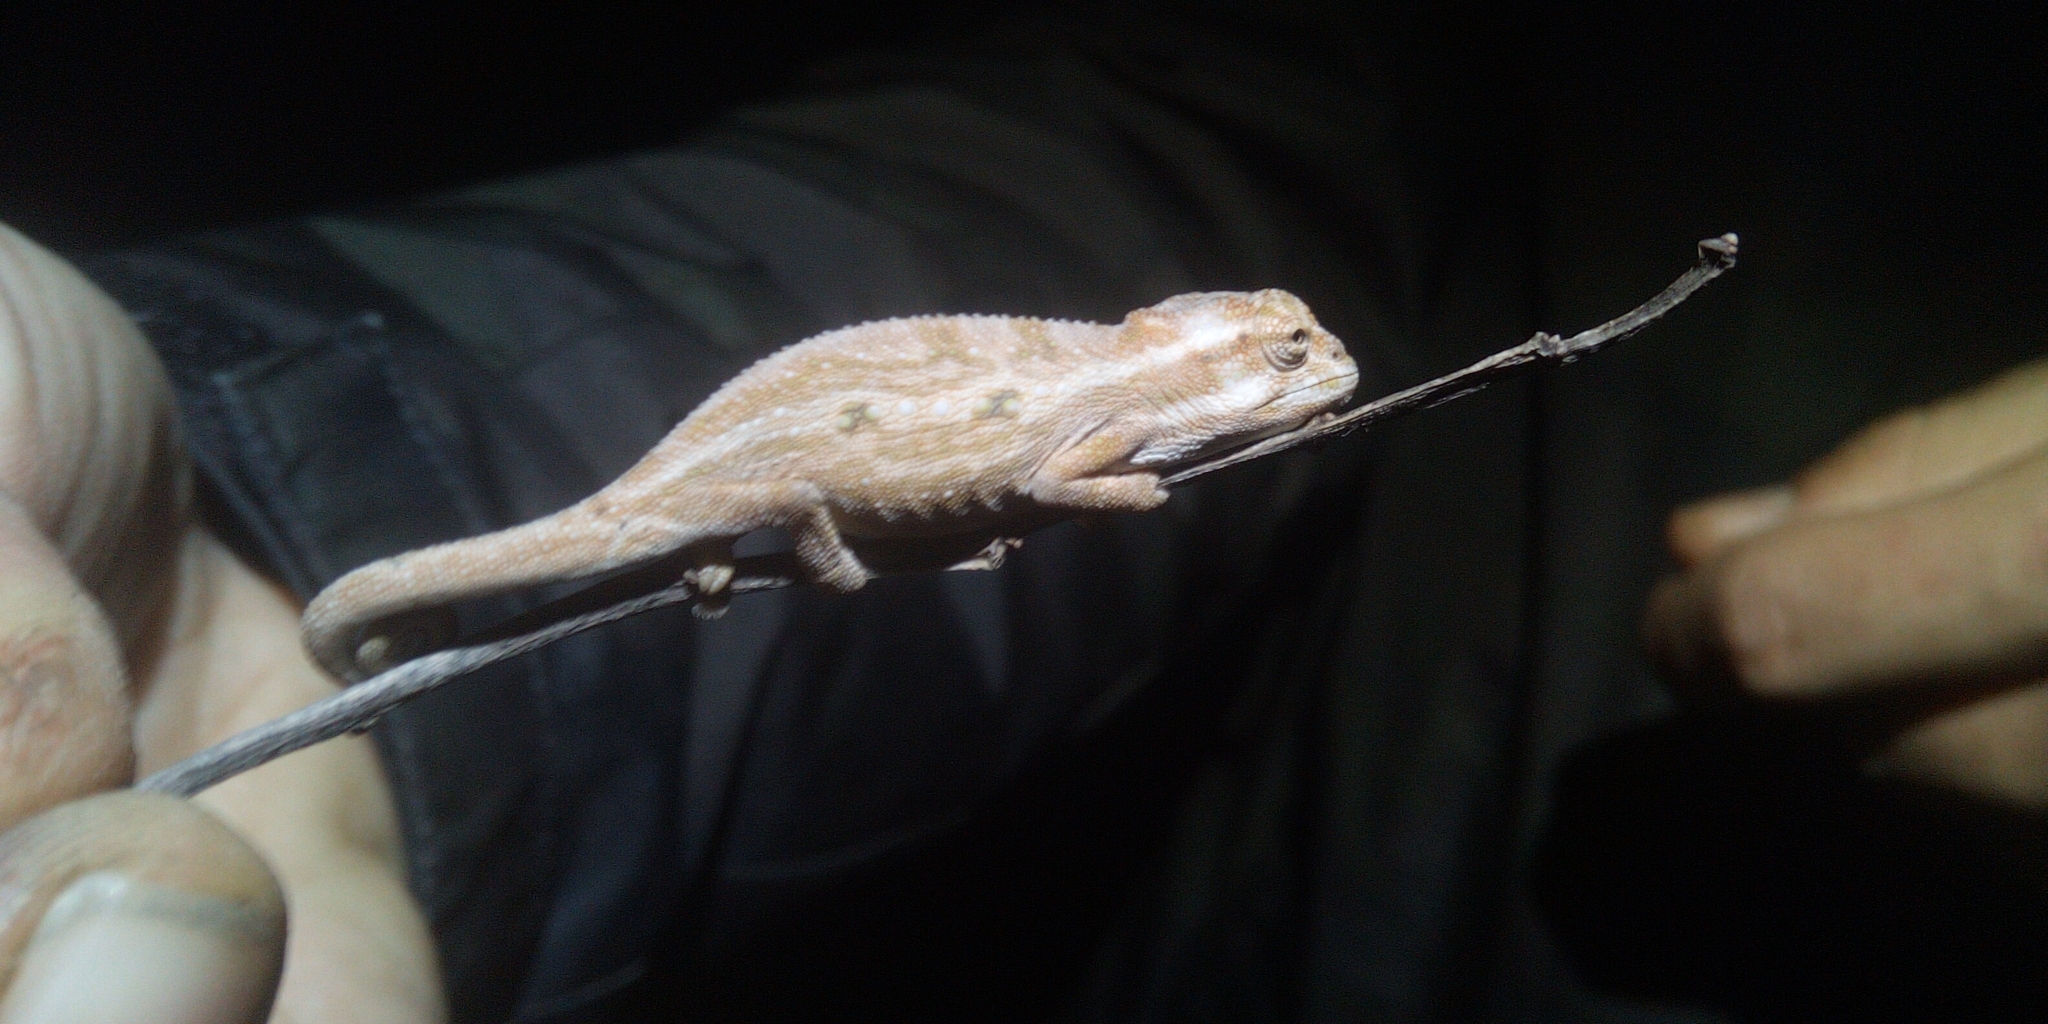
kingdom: Animalia
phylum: Chordata
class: Squamata
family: Chamaeleonidae
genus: Bradypodion
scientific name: Bradypodion pumilum
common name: Cape dwarf chameleon
